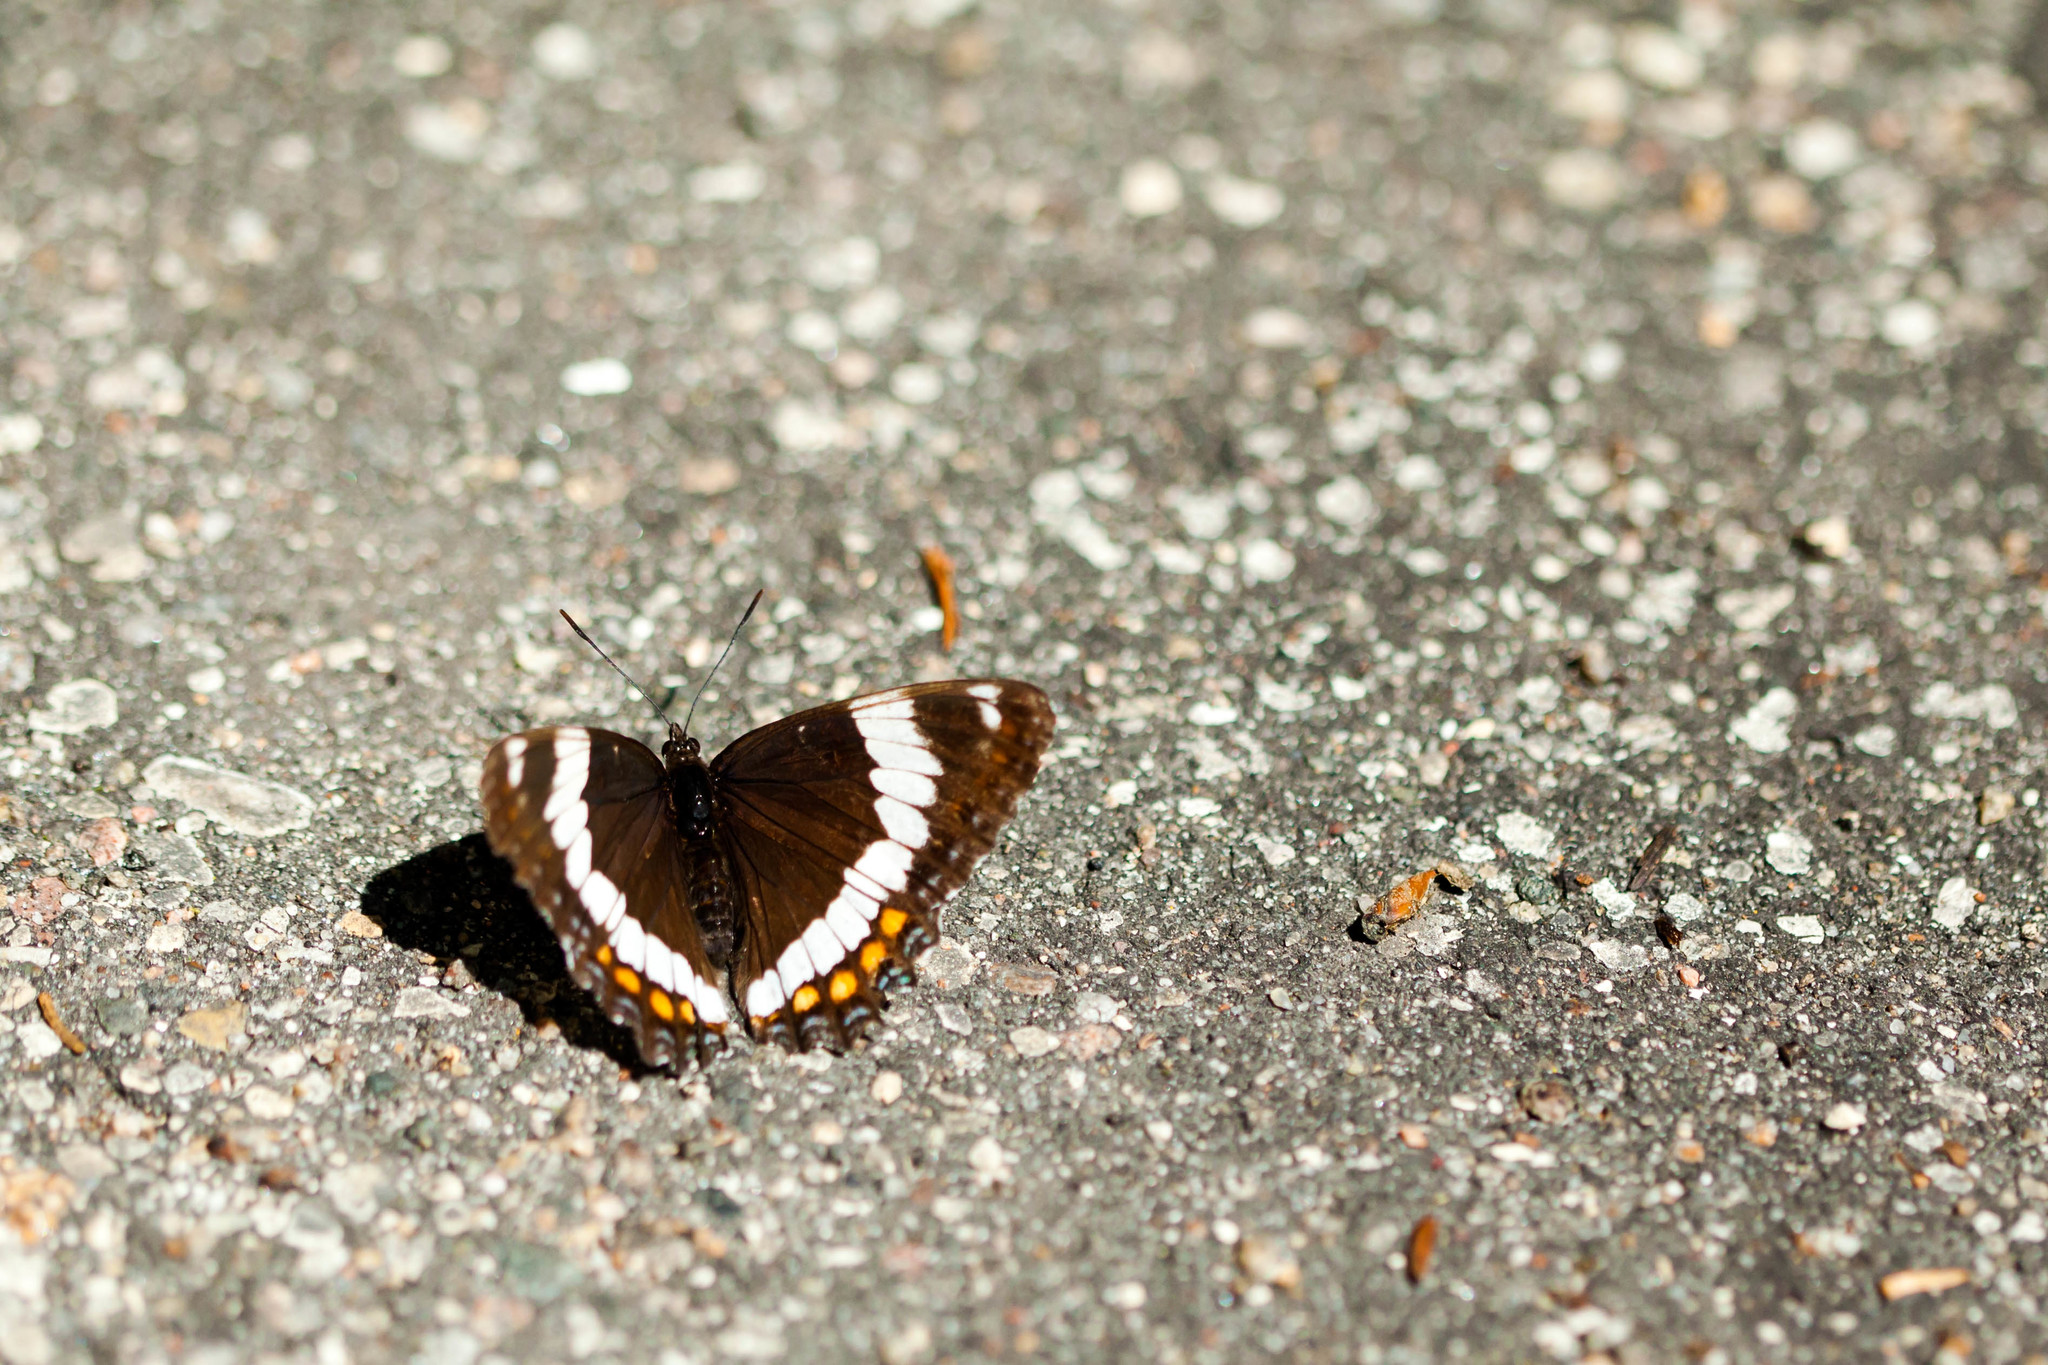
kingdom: Animalia
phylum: Arthropoda
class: Insecta
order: Lepidoptera
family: Nymphalidae
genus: Limenitis
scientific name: Limenitis arthemis
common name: Red-spotted admiral
